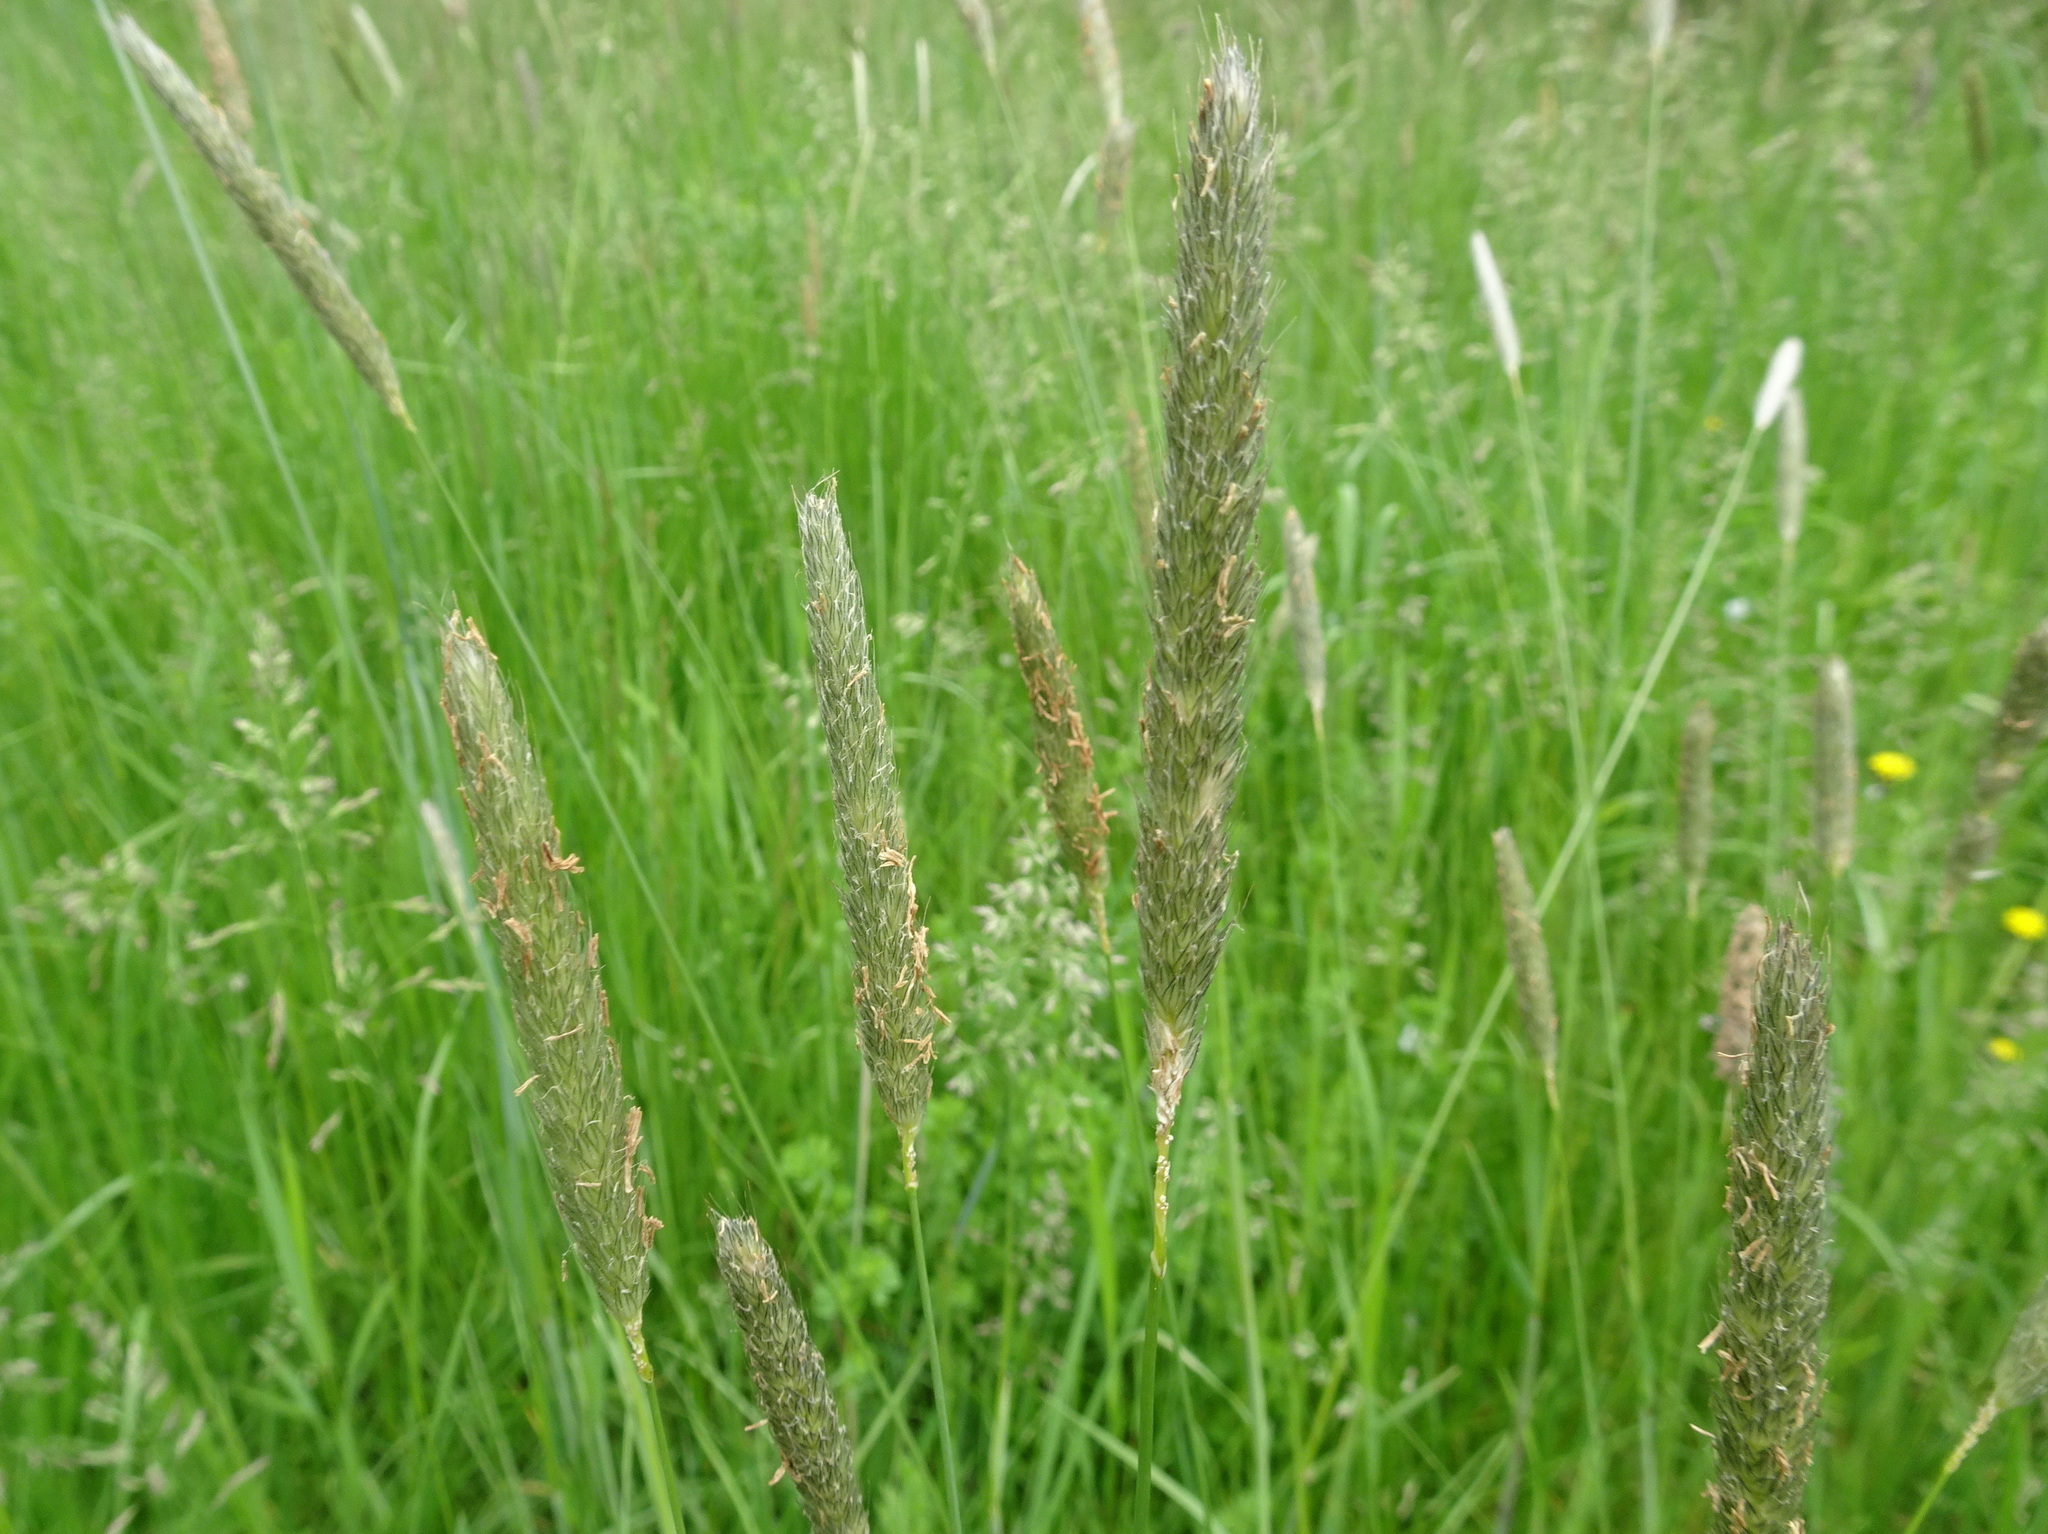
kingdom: Plantae
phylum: Tracheophyta
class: Liliopsida
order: Poales
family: Poaceae
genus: Alopecurus
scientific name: Alopecurus pratensis
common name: Meadow foxtail
